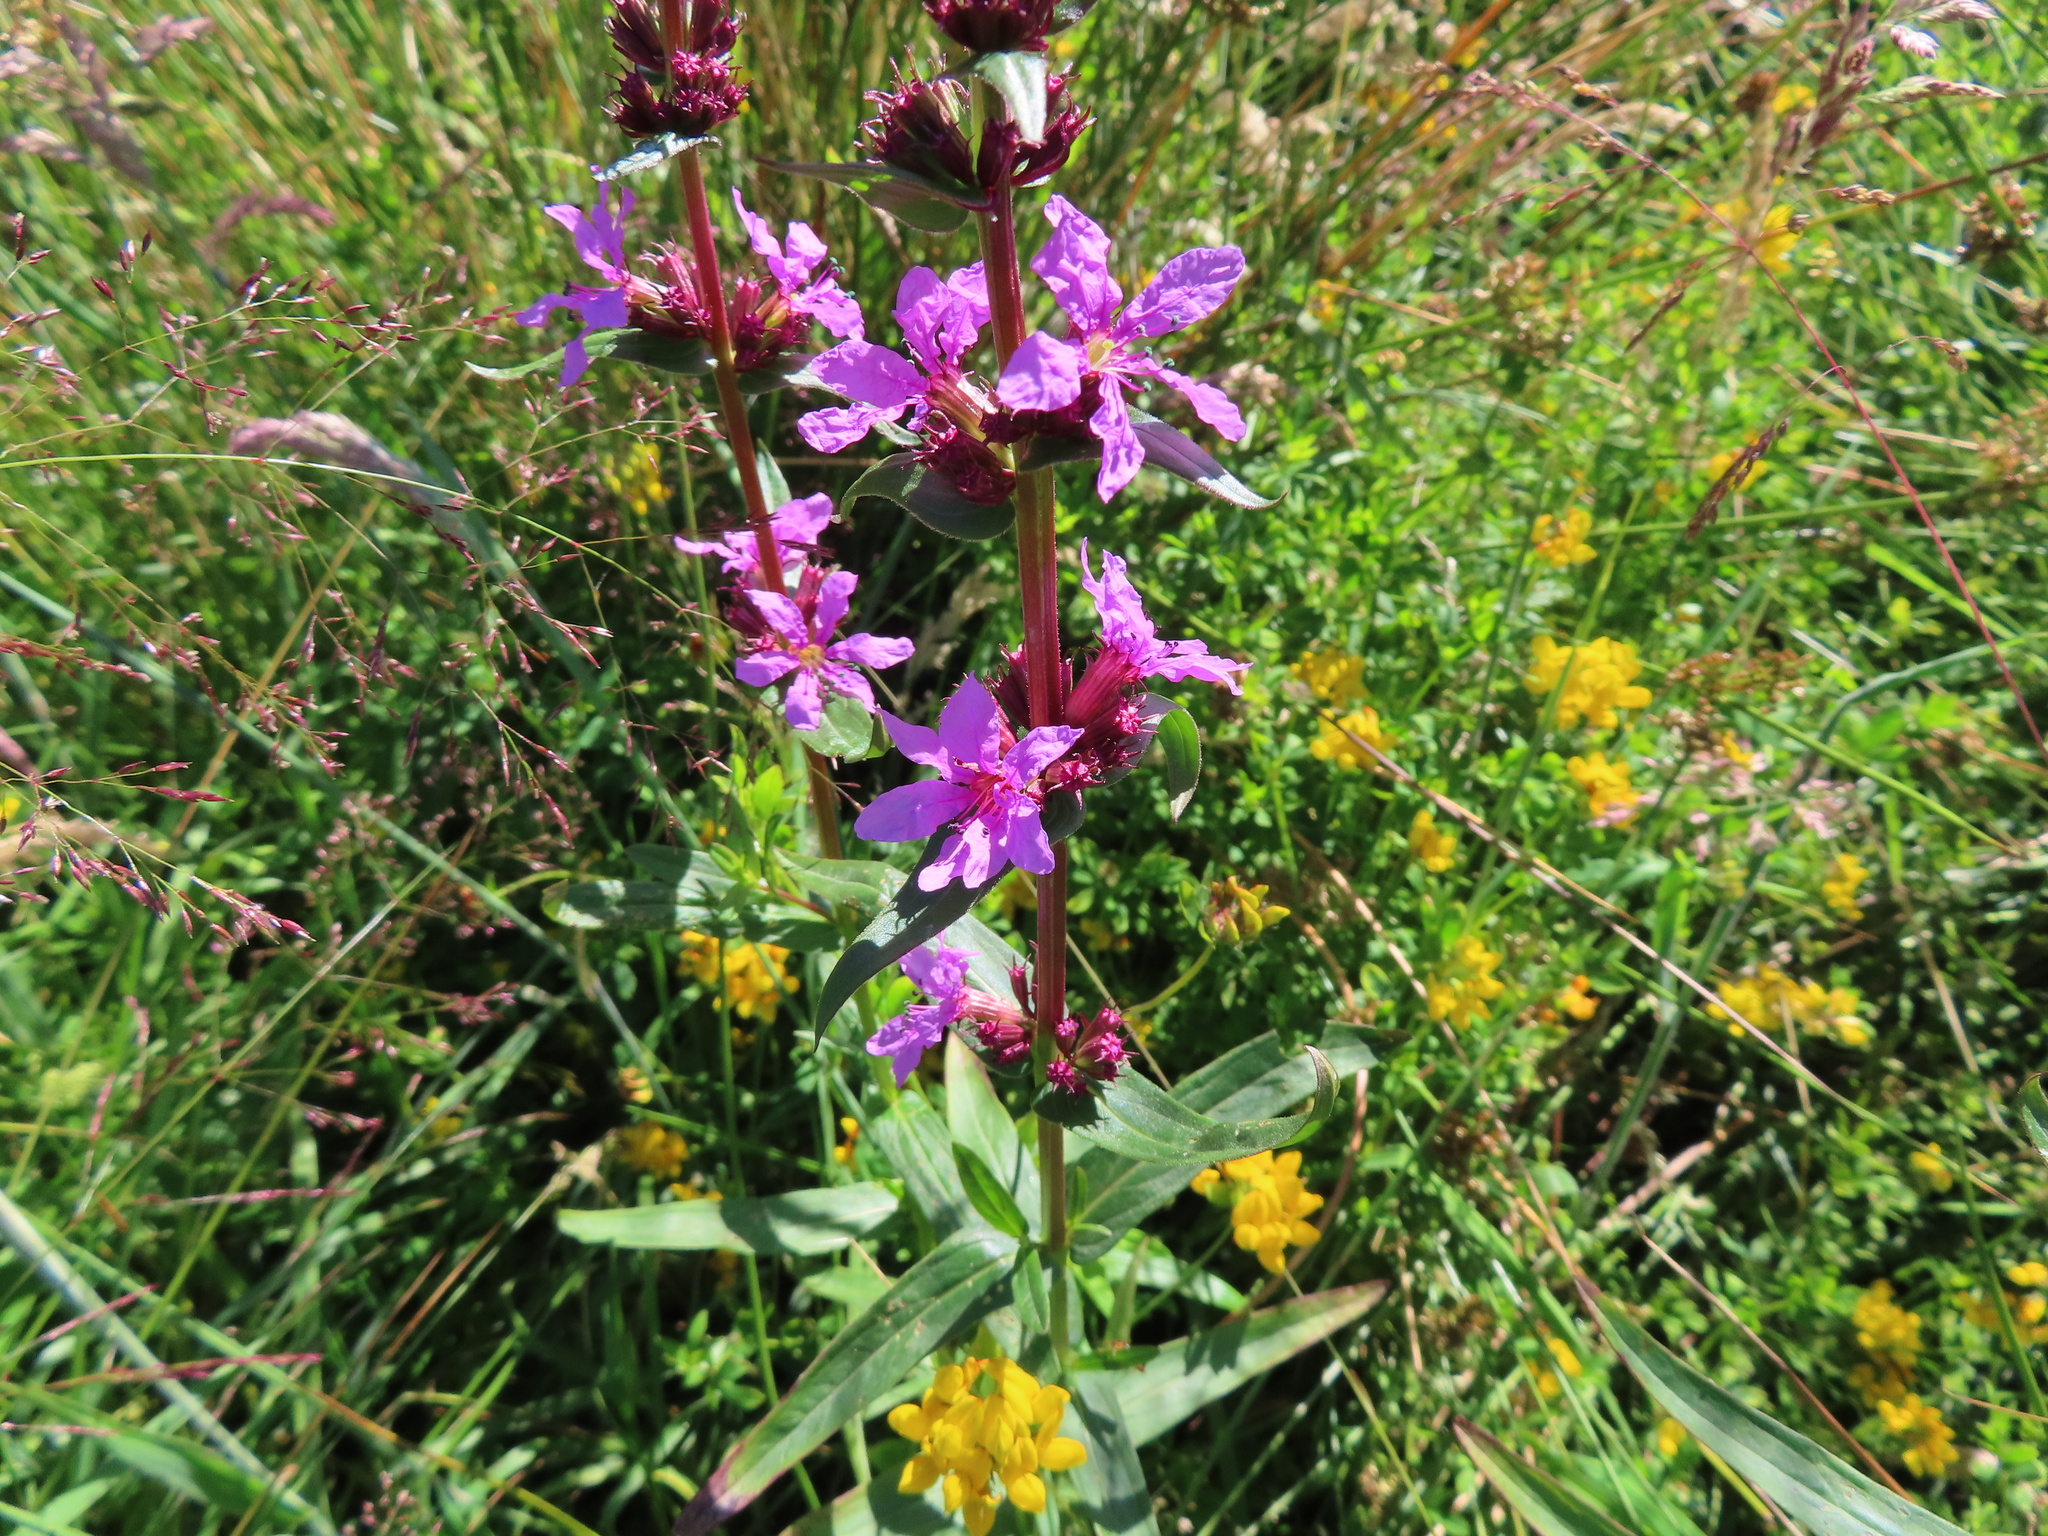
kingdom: Plantae
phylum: Tracheophyta
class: Magnoliopsida
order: Myrtales
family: Lythraceae
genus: Lythrum
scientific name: Lythrum salicaria
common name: Purple loosestrife
